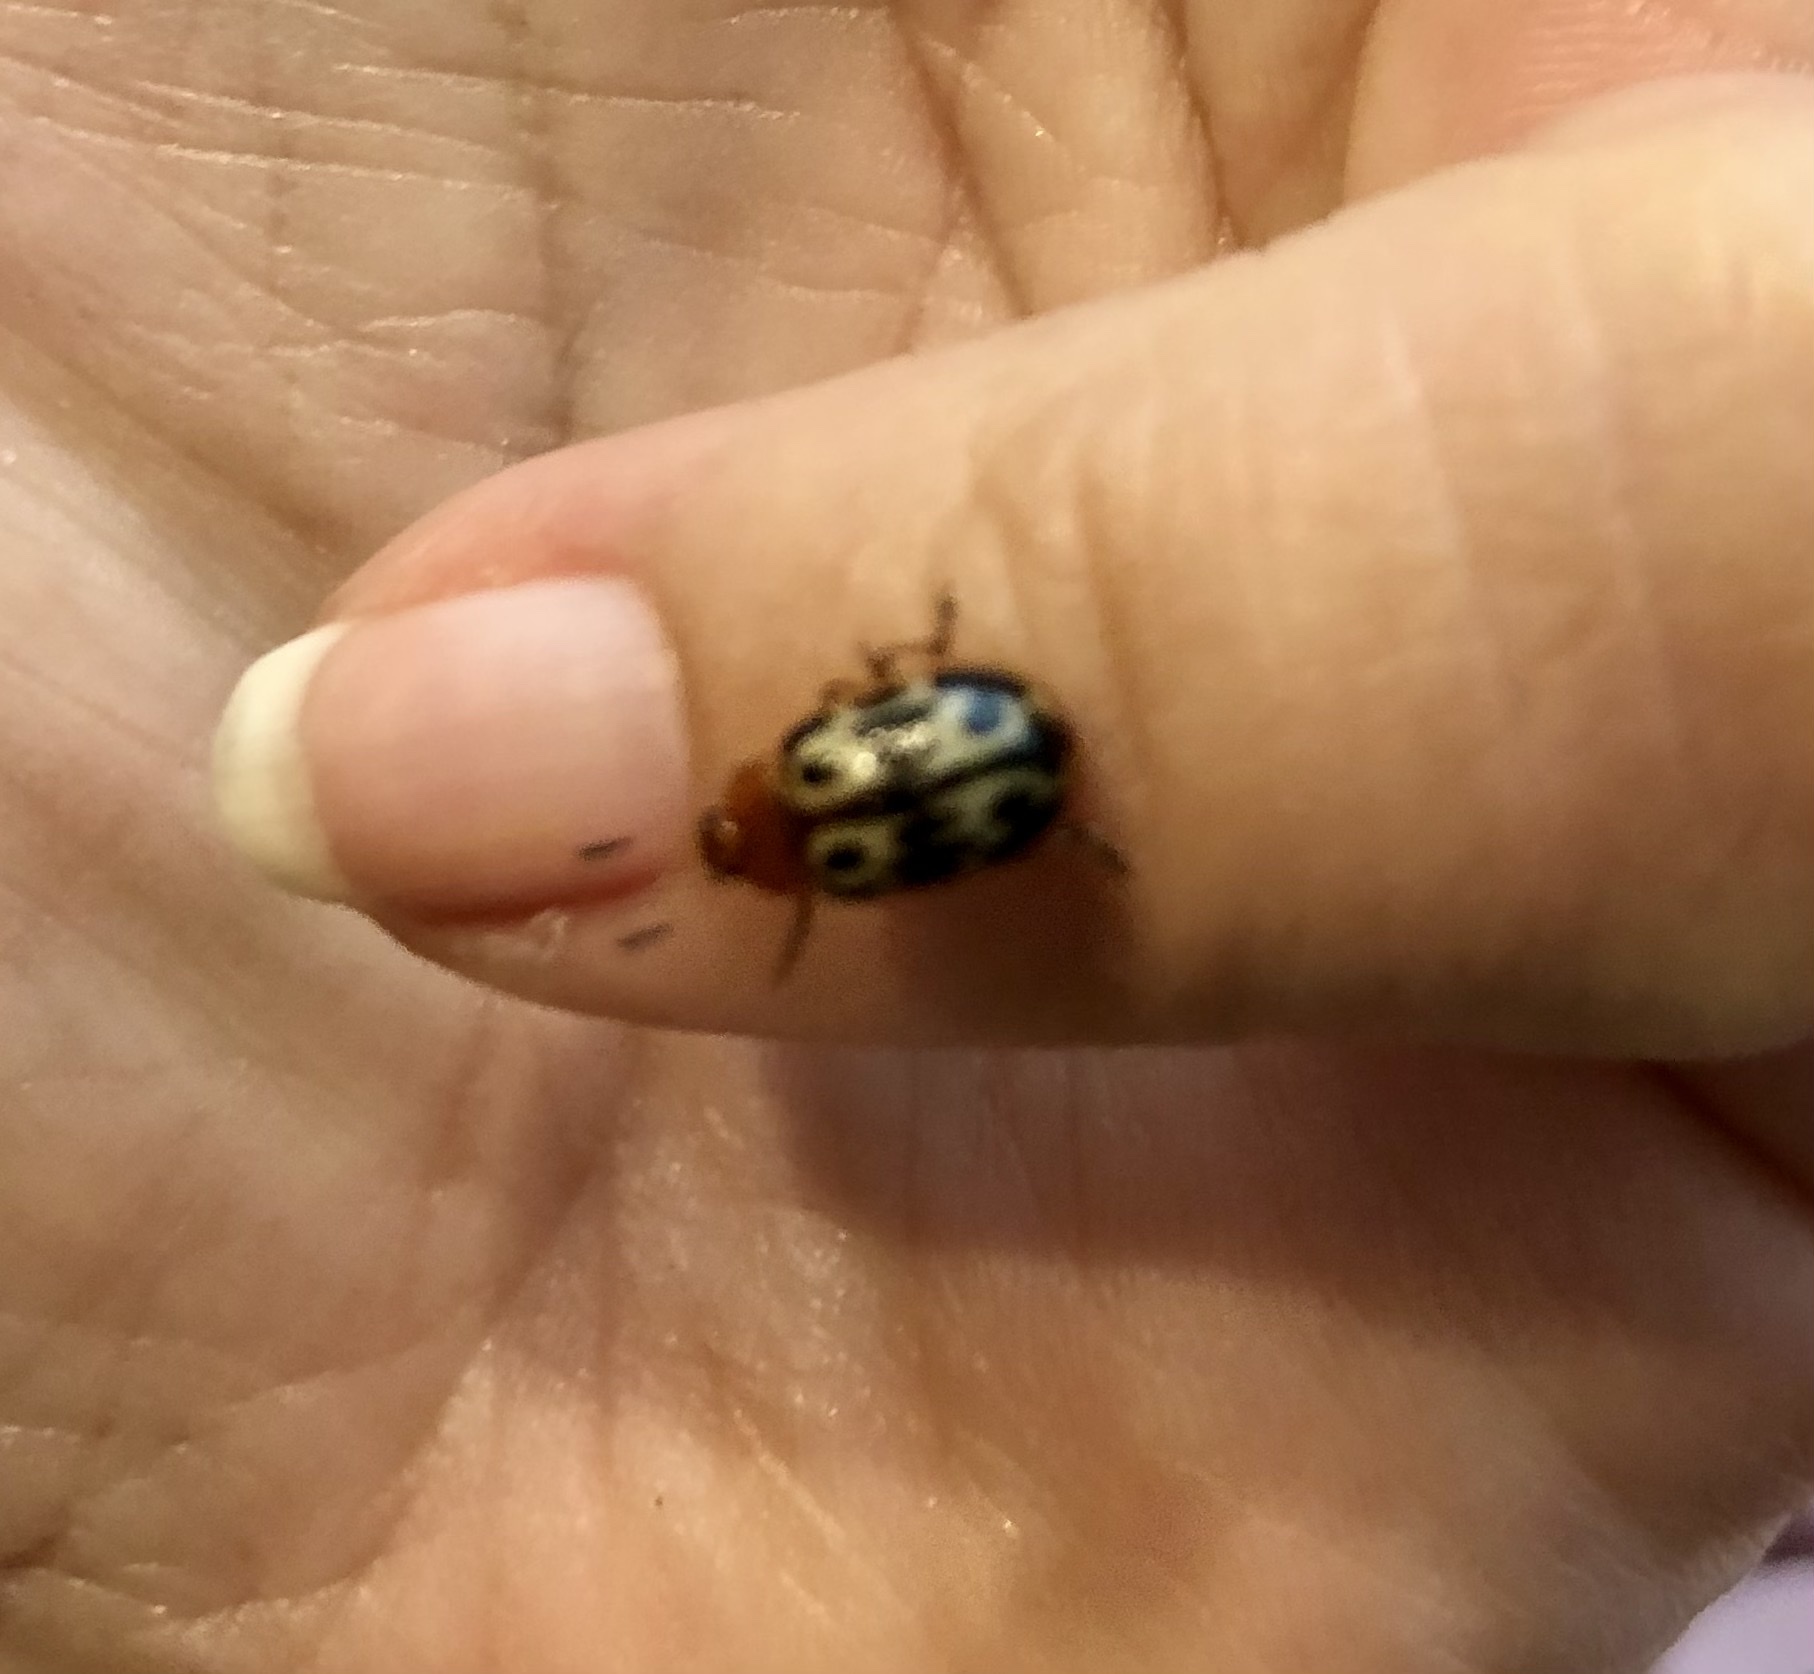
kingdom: Animalia
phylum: Arthropoda
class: Insecta
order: Coleoptera
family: Chrysomelidae
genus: Chrysomela
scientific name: Chrysomela texana
